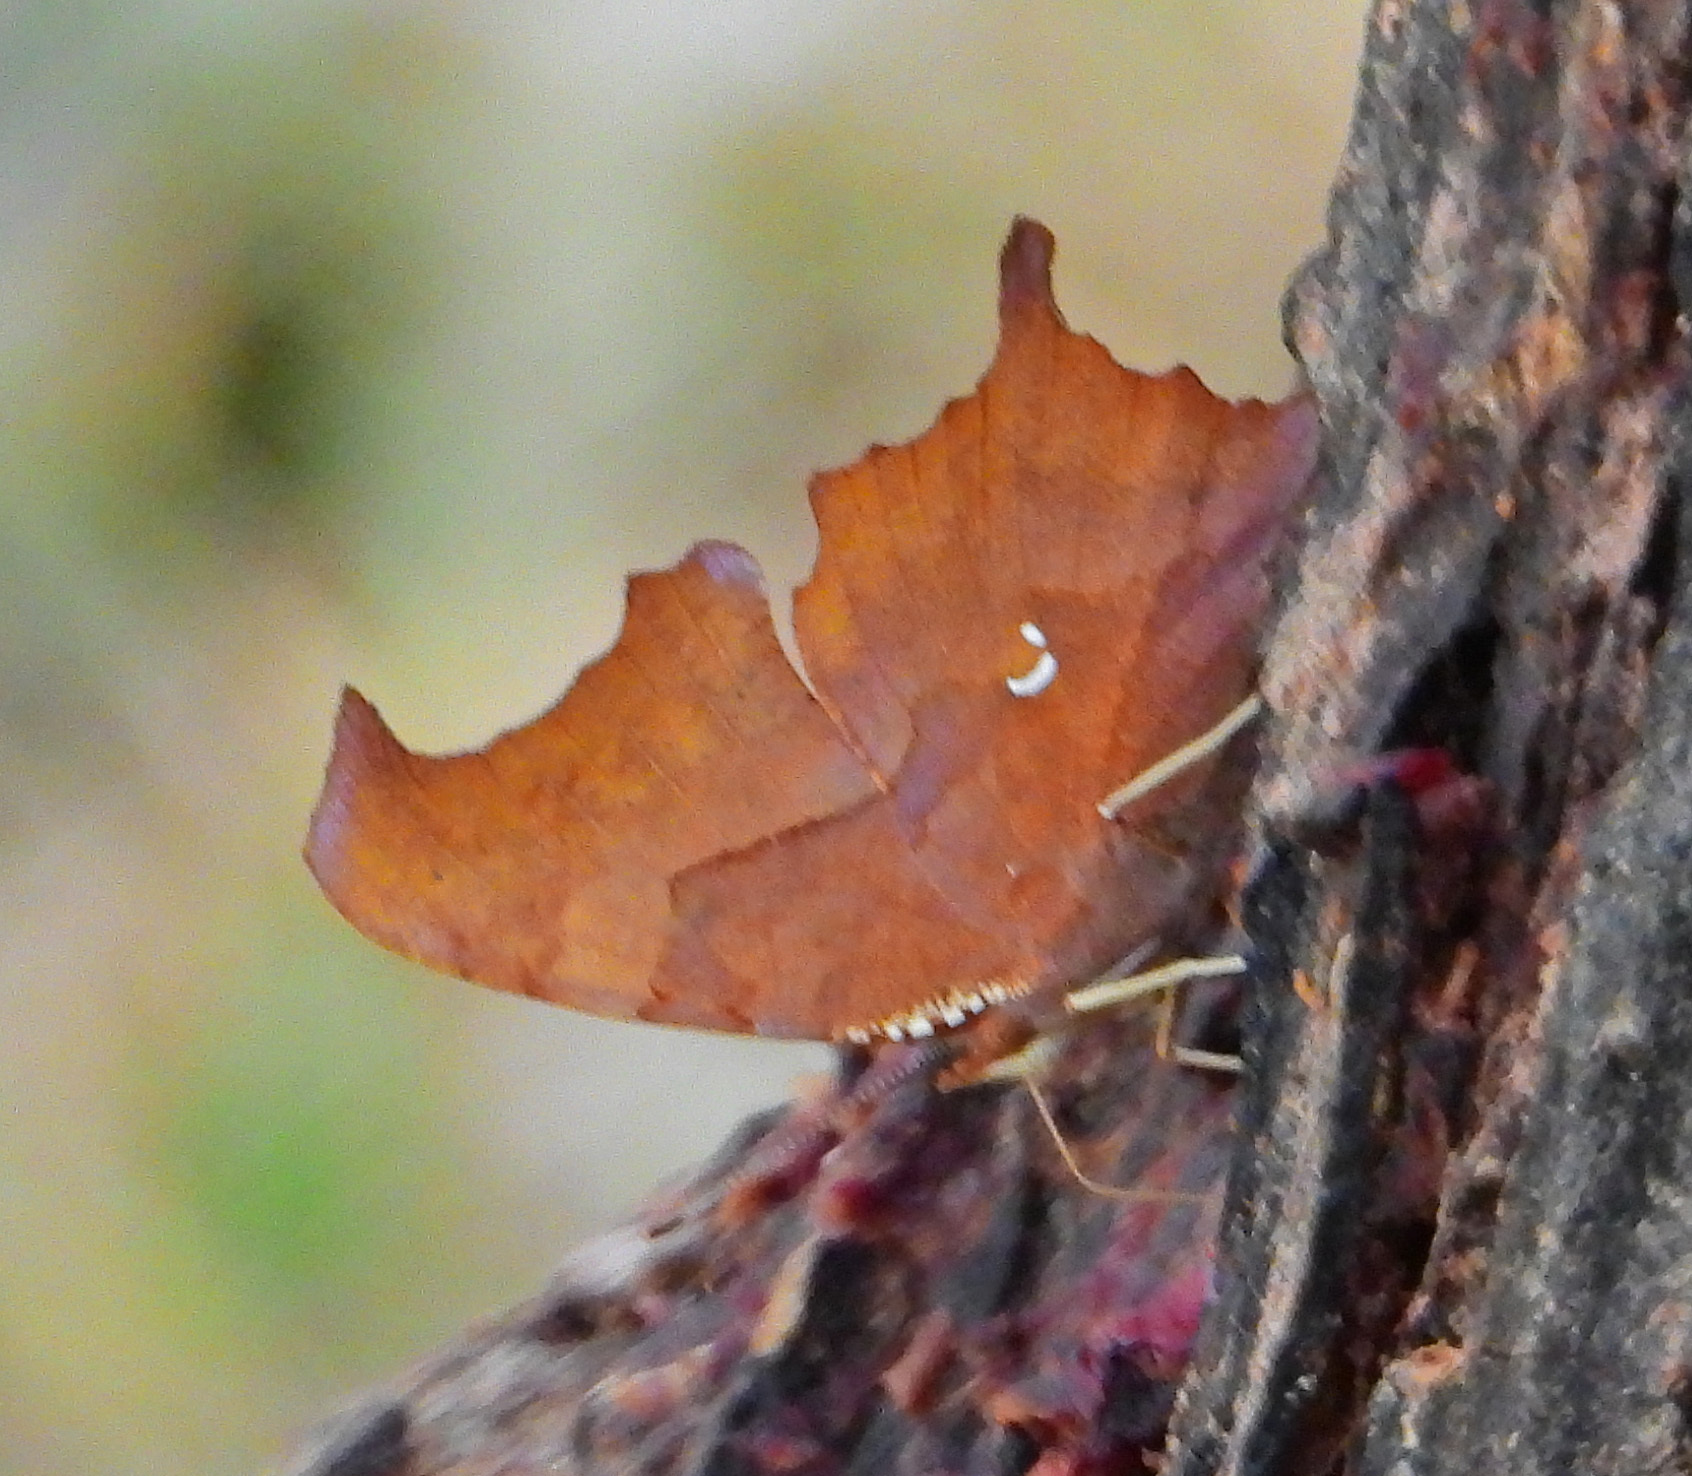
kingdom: Animalia
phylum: Arthropoda
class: Insecta
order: Lepidoptera
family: Nymphalidae
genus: Polygonia
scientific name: Polygonia interrogationis
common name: Question mark
